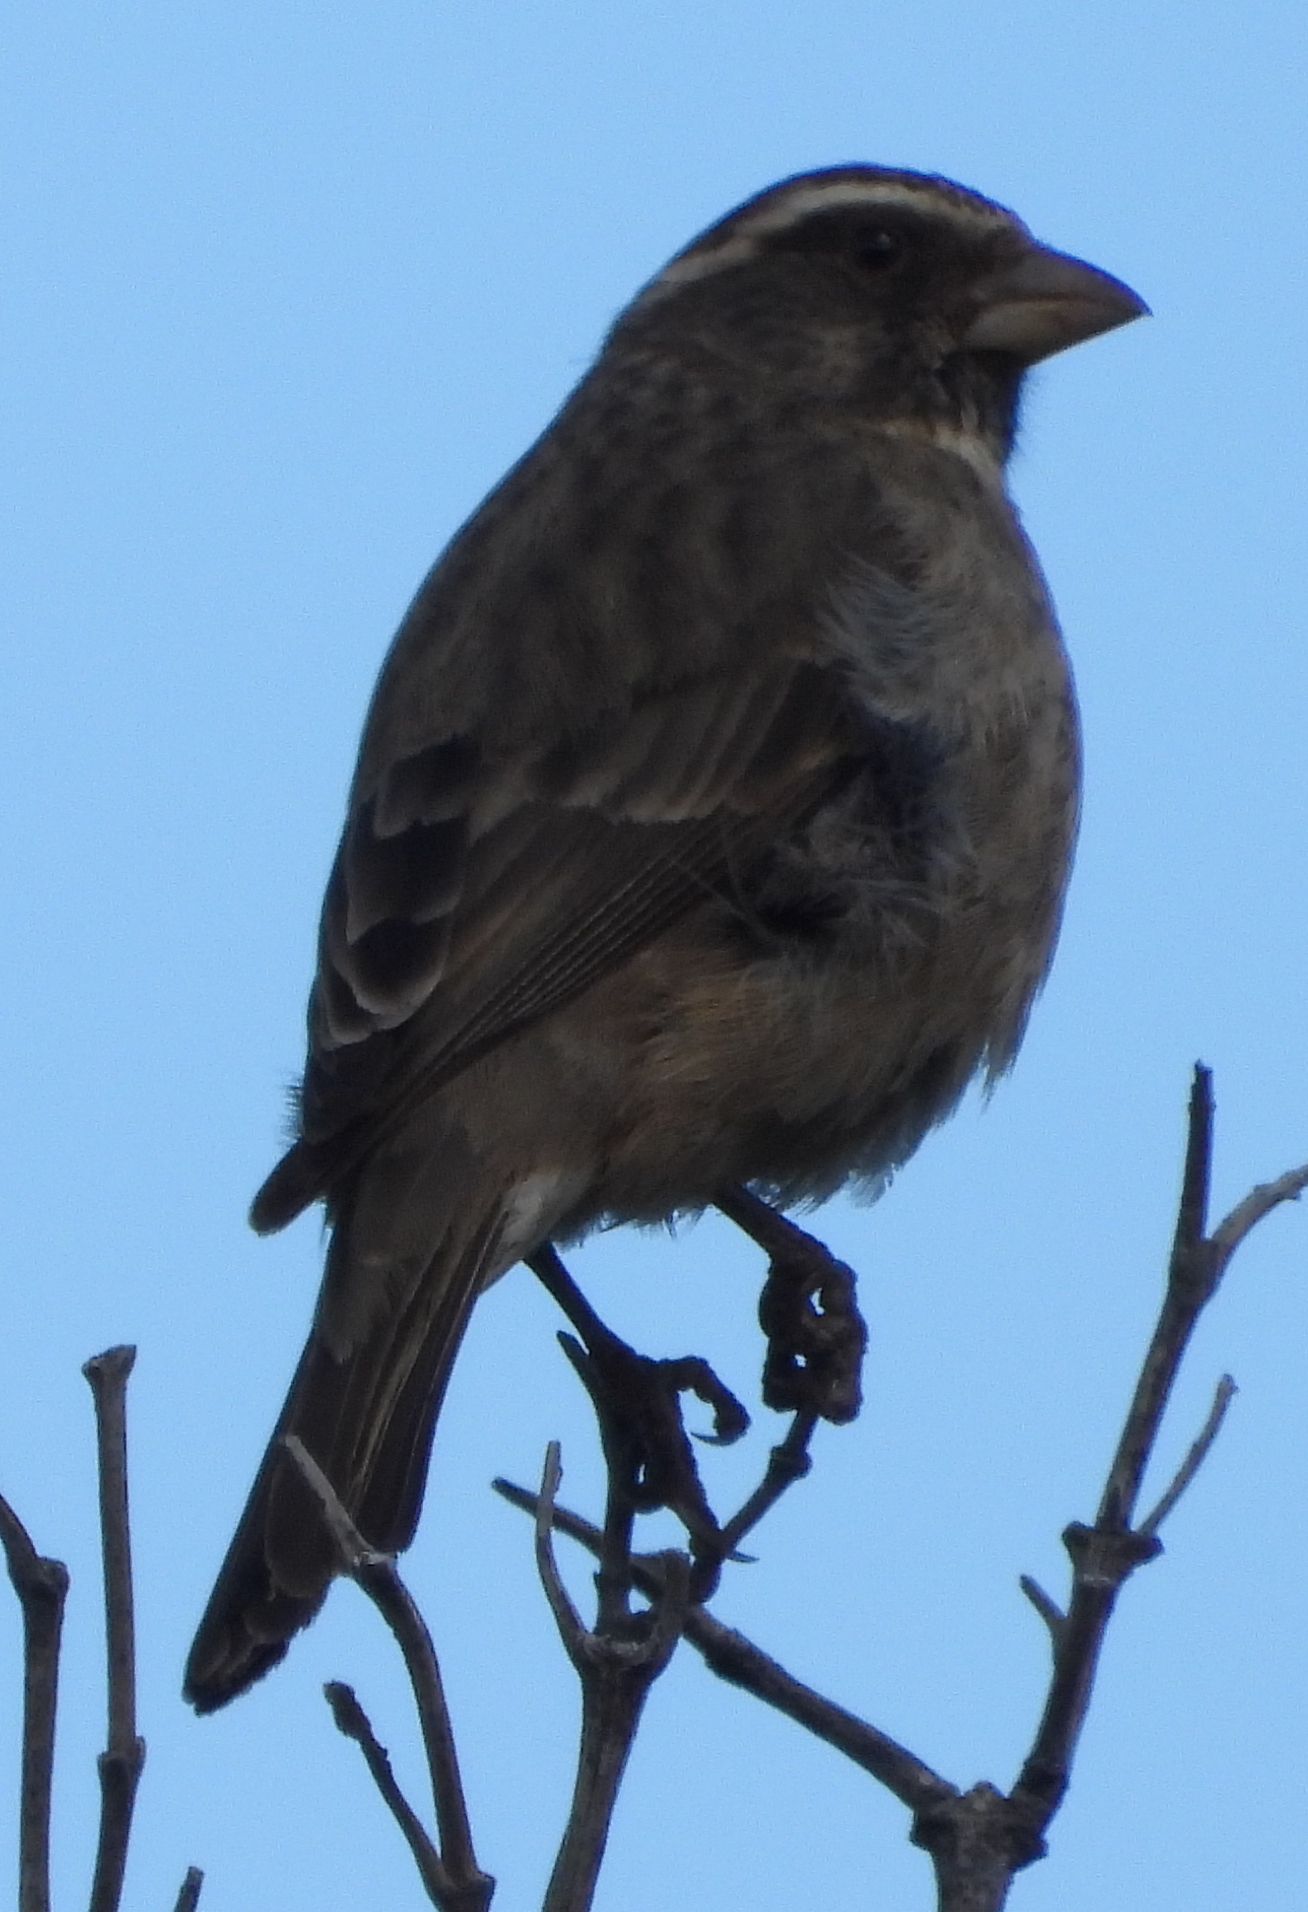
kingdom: Animalia
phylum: Chordata
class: Aves
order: Passeriformes
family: Fringillidae
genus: Crithagra
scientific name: Crithagra gularis
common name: Streaky-headed seedeater
